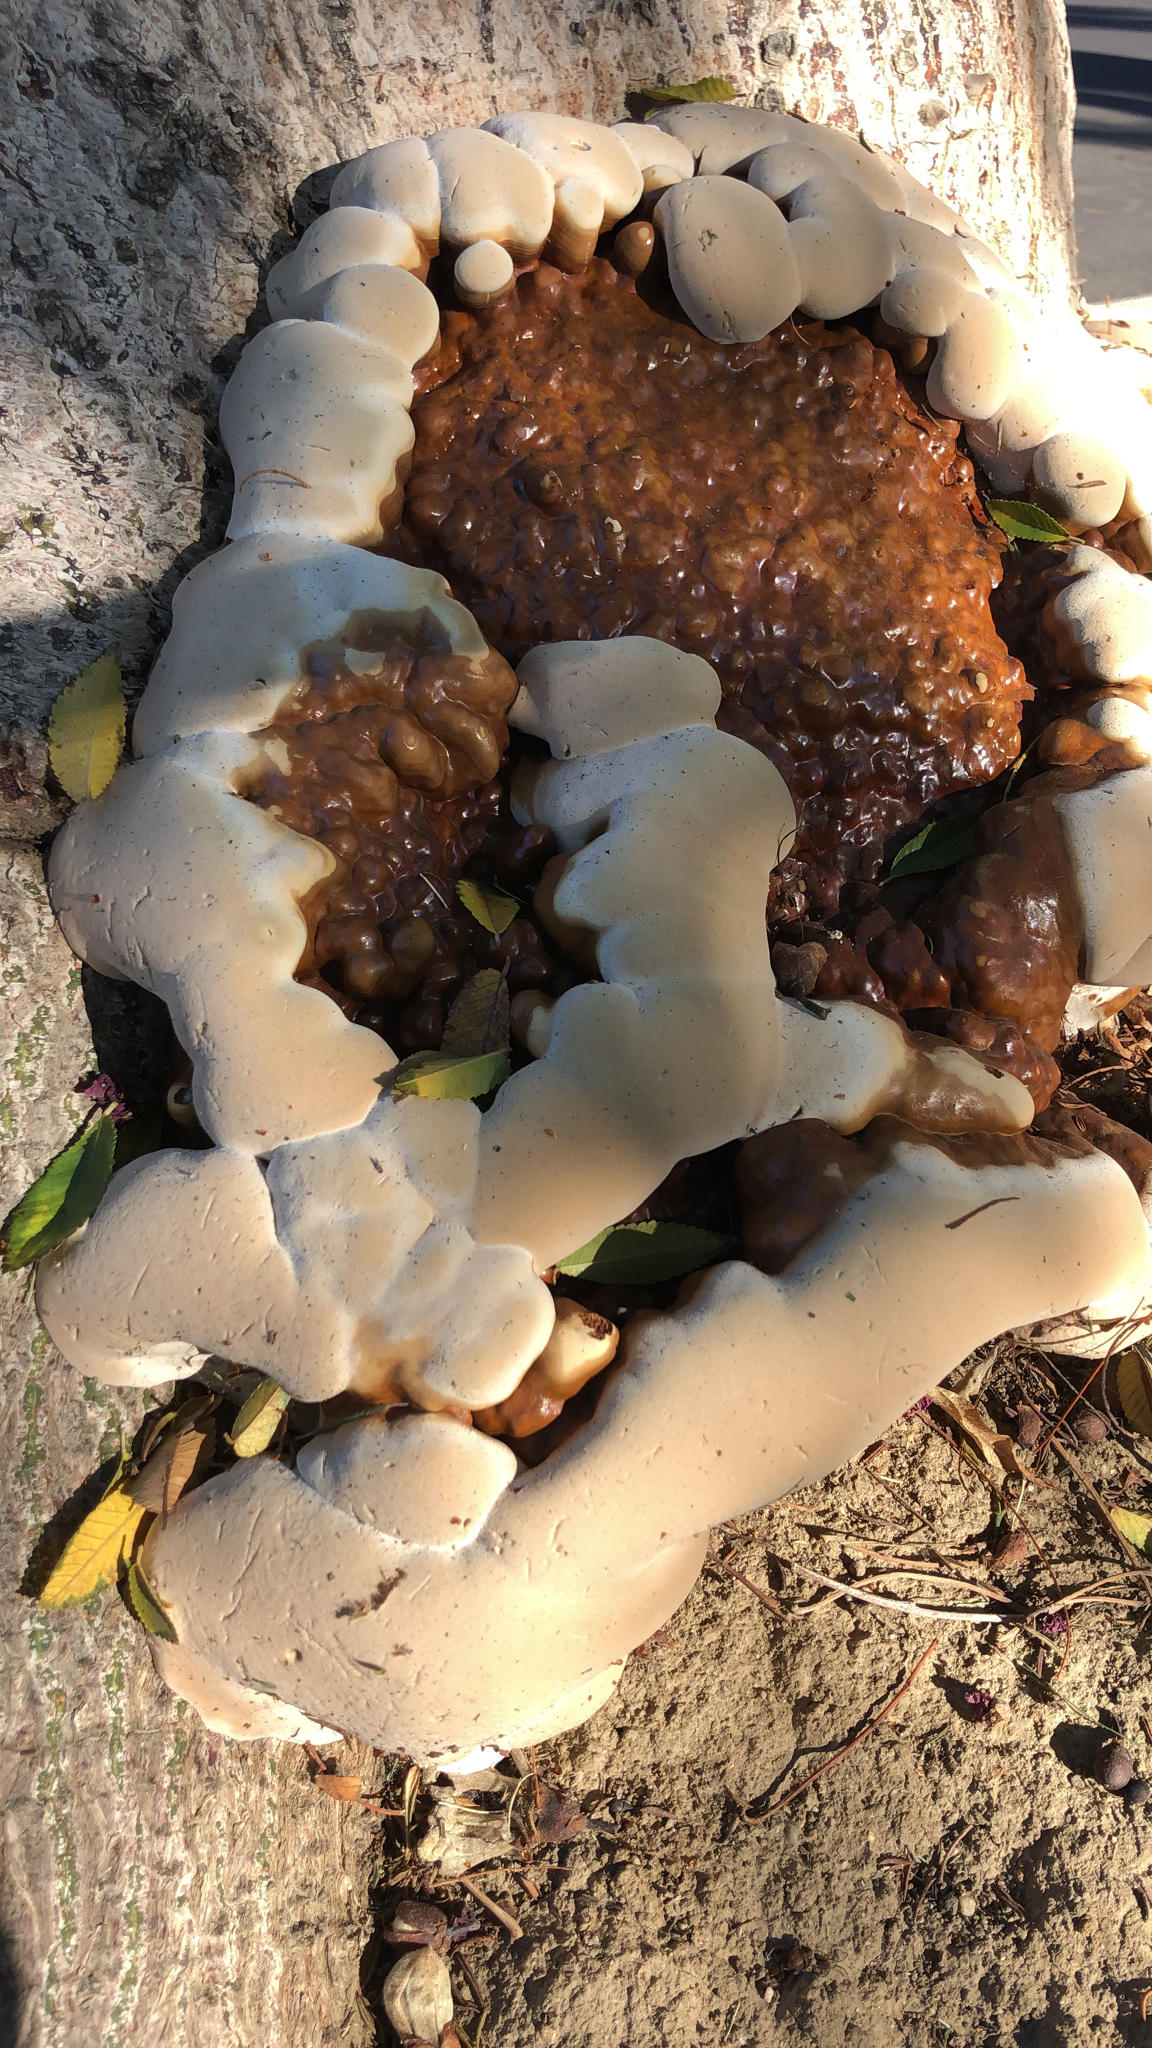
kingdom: Fungi
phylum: Basidiomycota
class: Agaricomycetes
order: Polyporales
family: Polyporaceae
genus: Ganoderma
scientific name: Ganoderma polychromum
